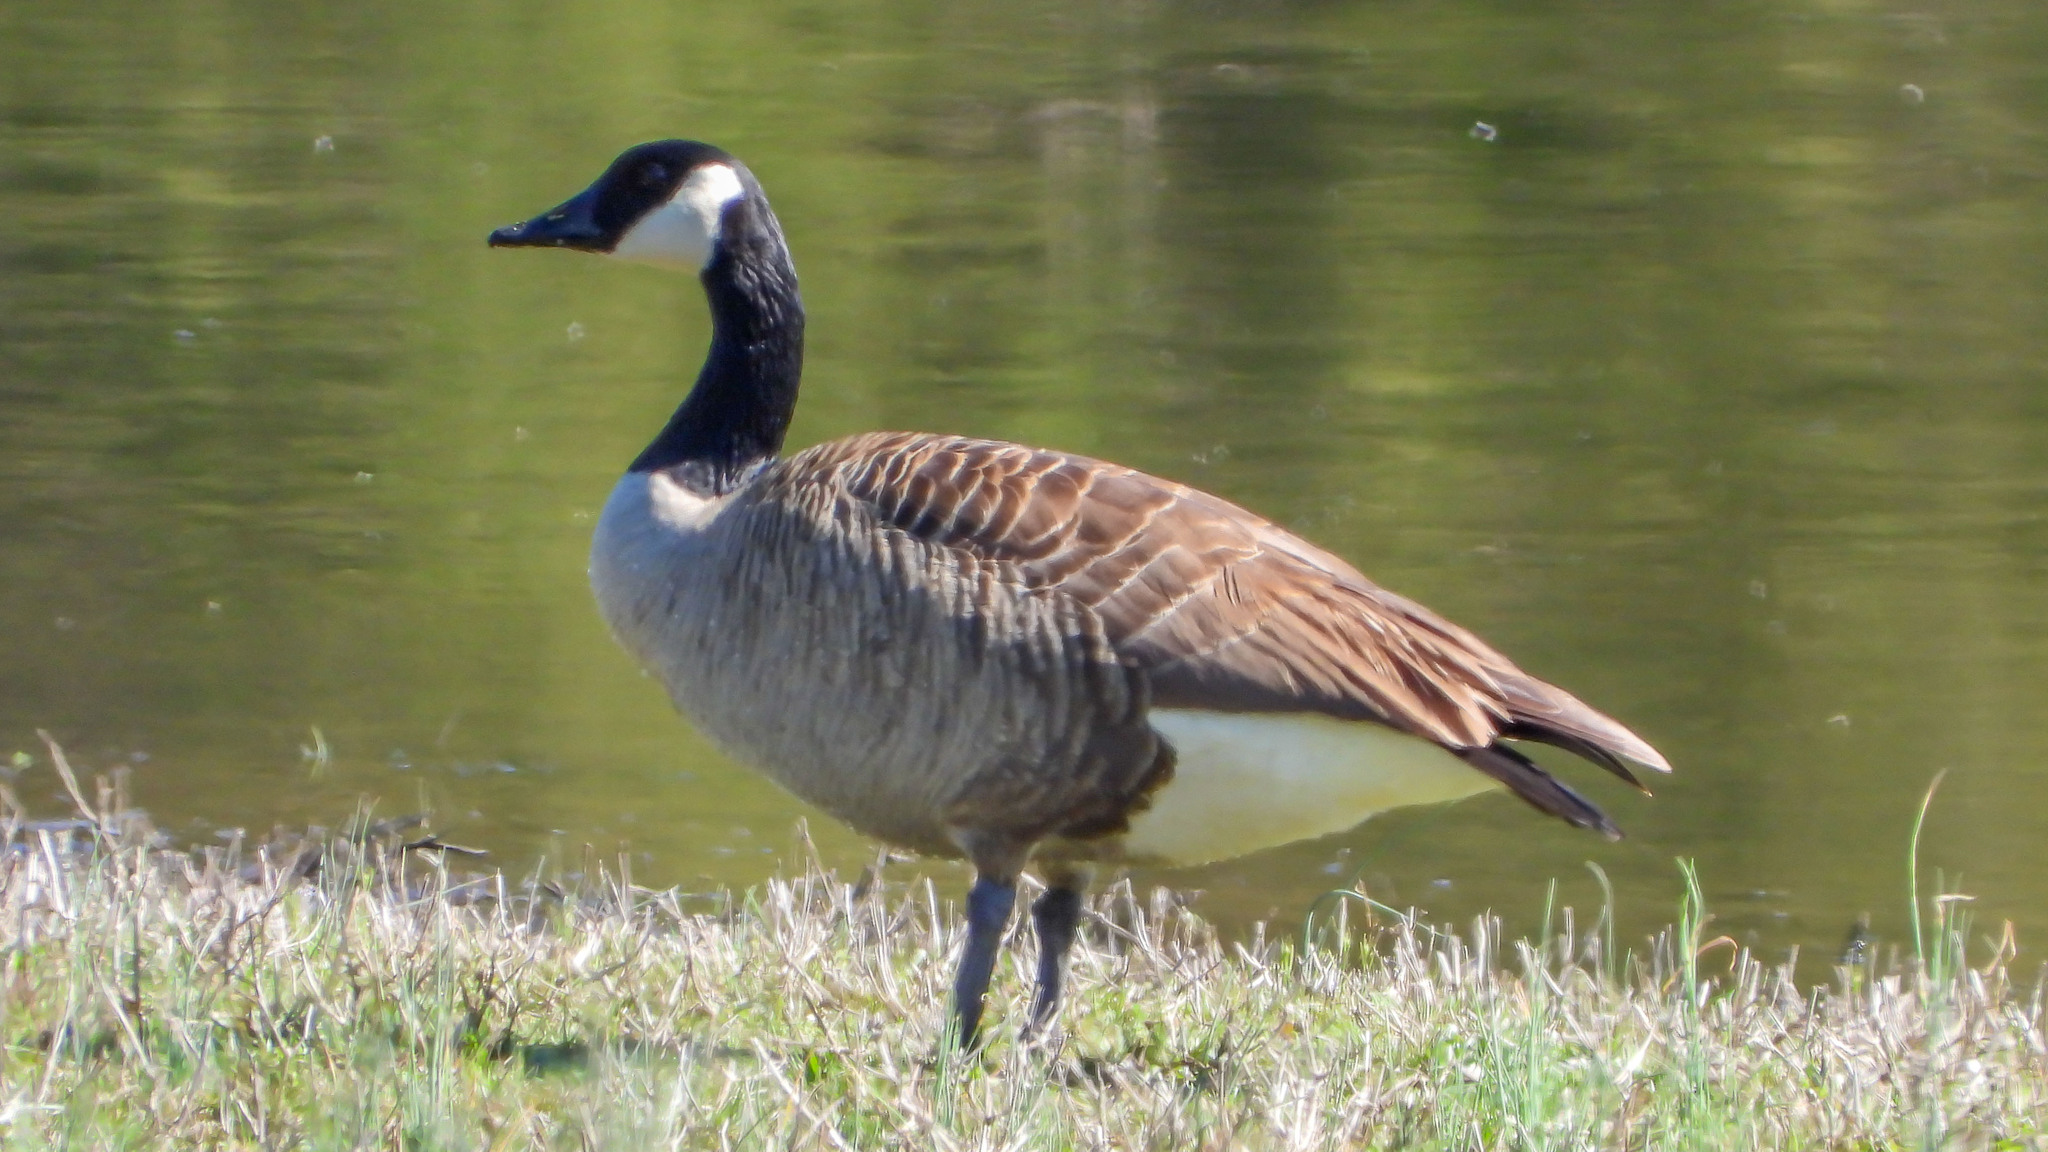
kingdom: Animalia
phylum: Chordata
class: Aves
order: Anseriformes
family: Anatidae
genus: Branta
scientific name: Branta canadensis
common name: Canada goose
